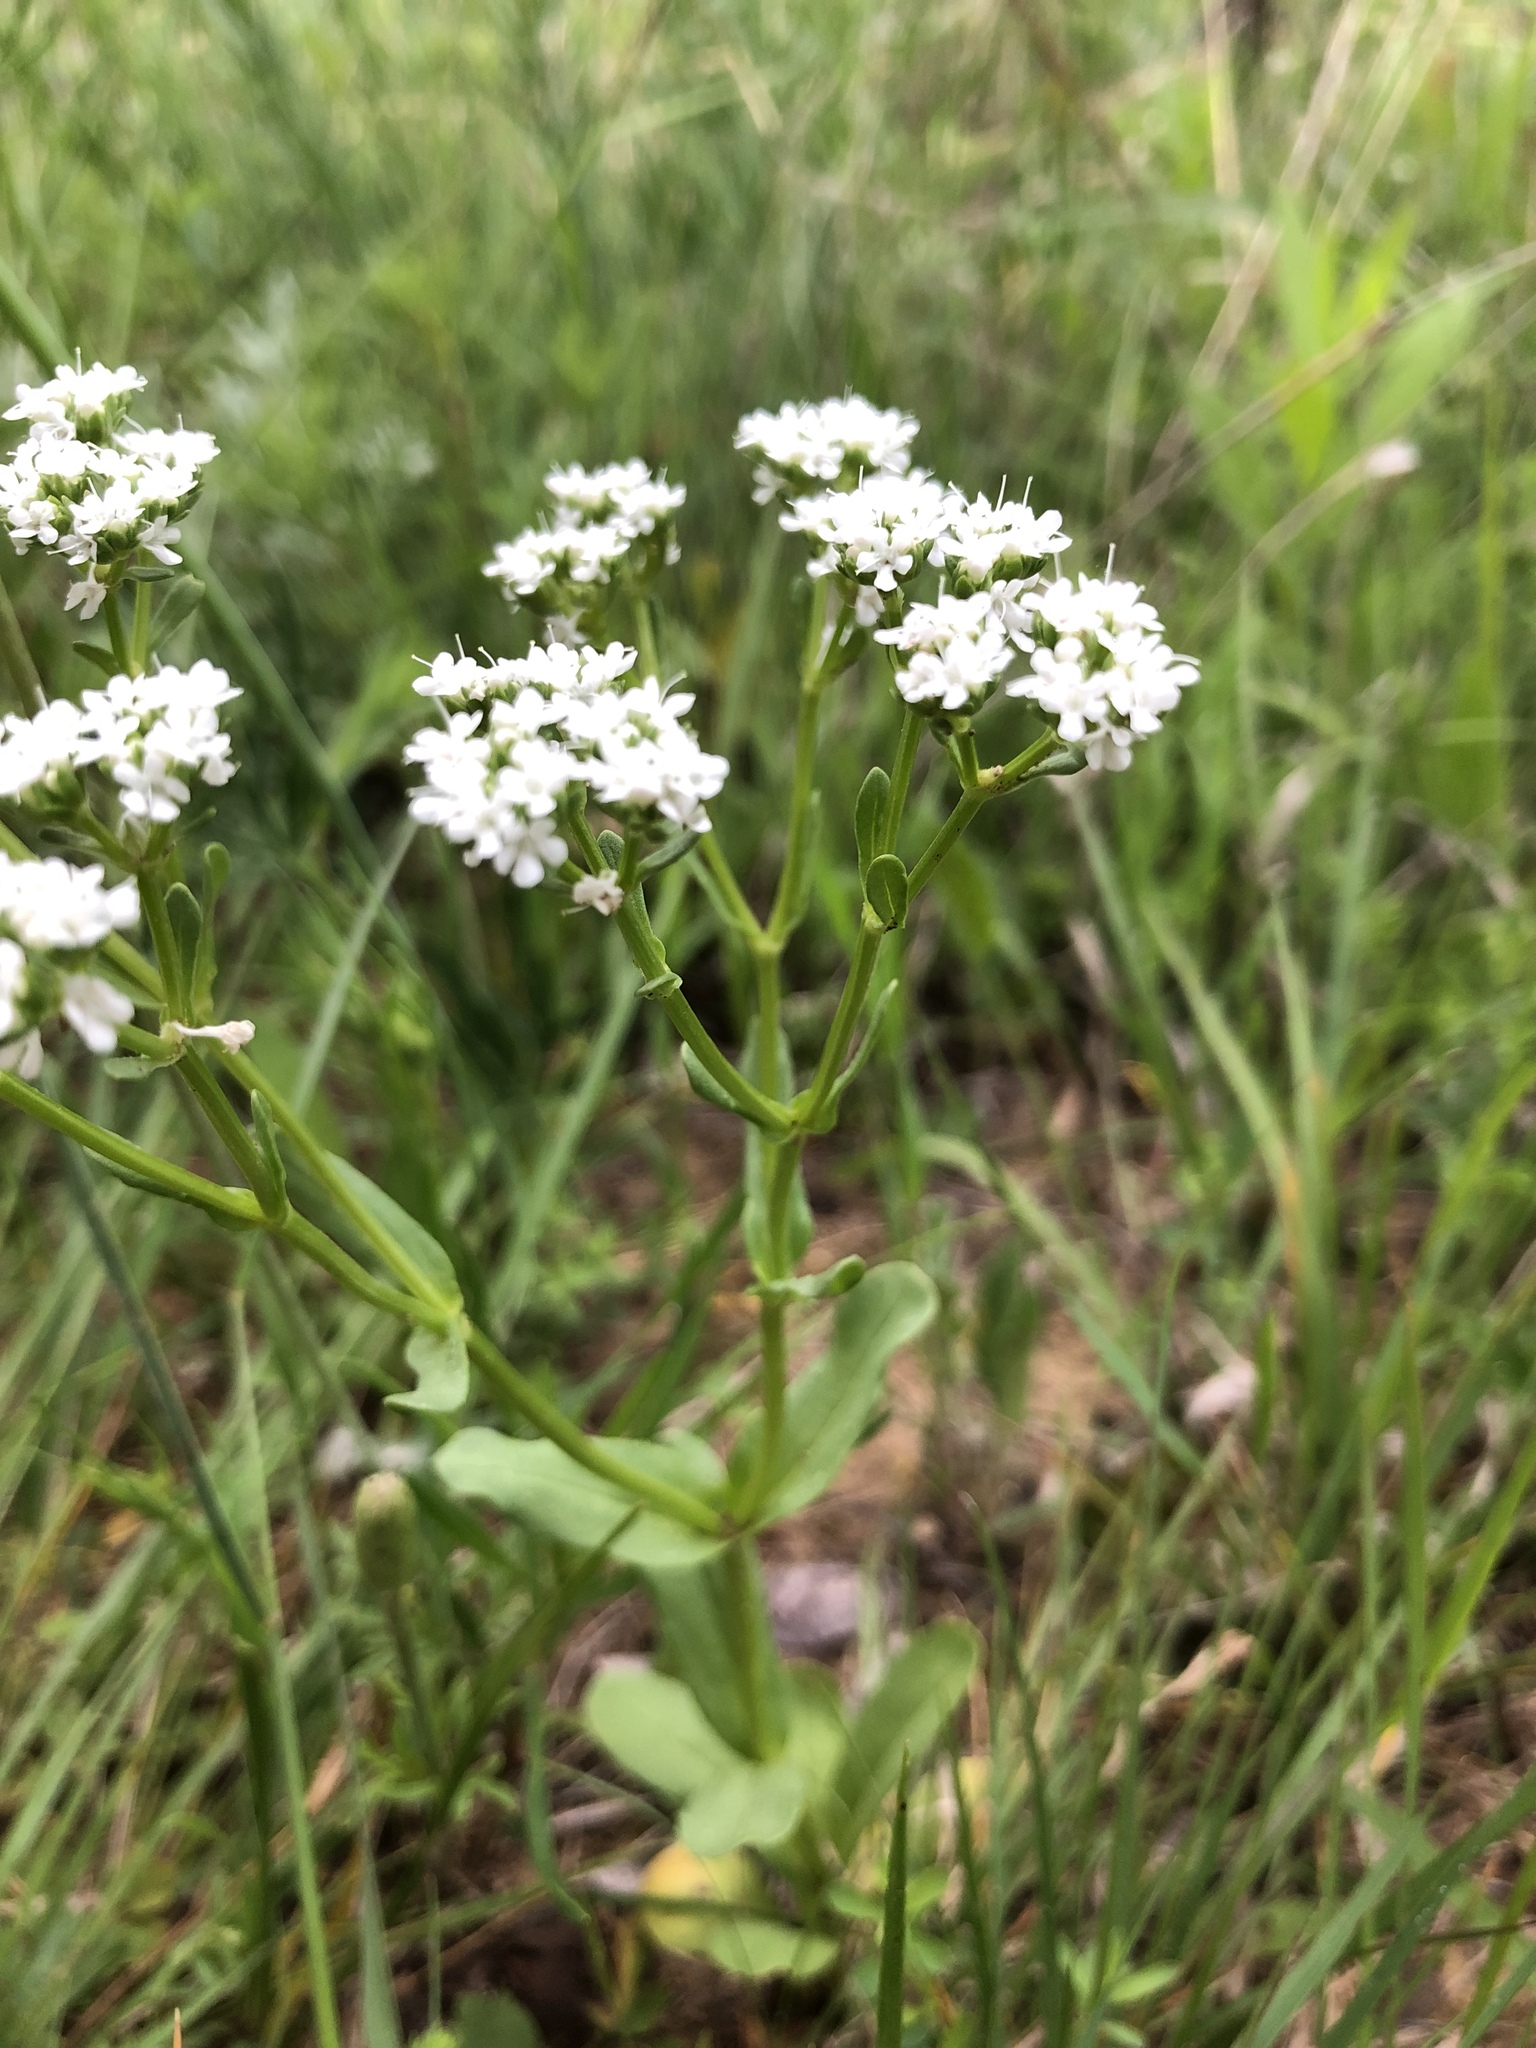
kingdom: Plantae
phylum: Tracheophyta
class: Magnoliopsida
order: Dipsacales
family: Caprifoliaceae
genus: Valerianella
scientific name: Valerianella amarella
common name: Hariy cornsalad
